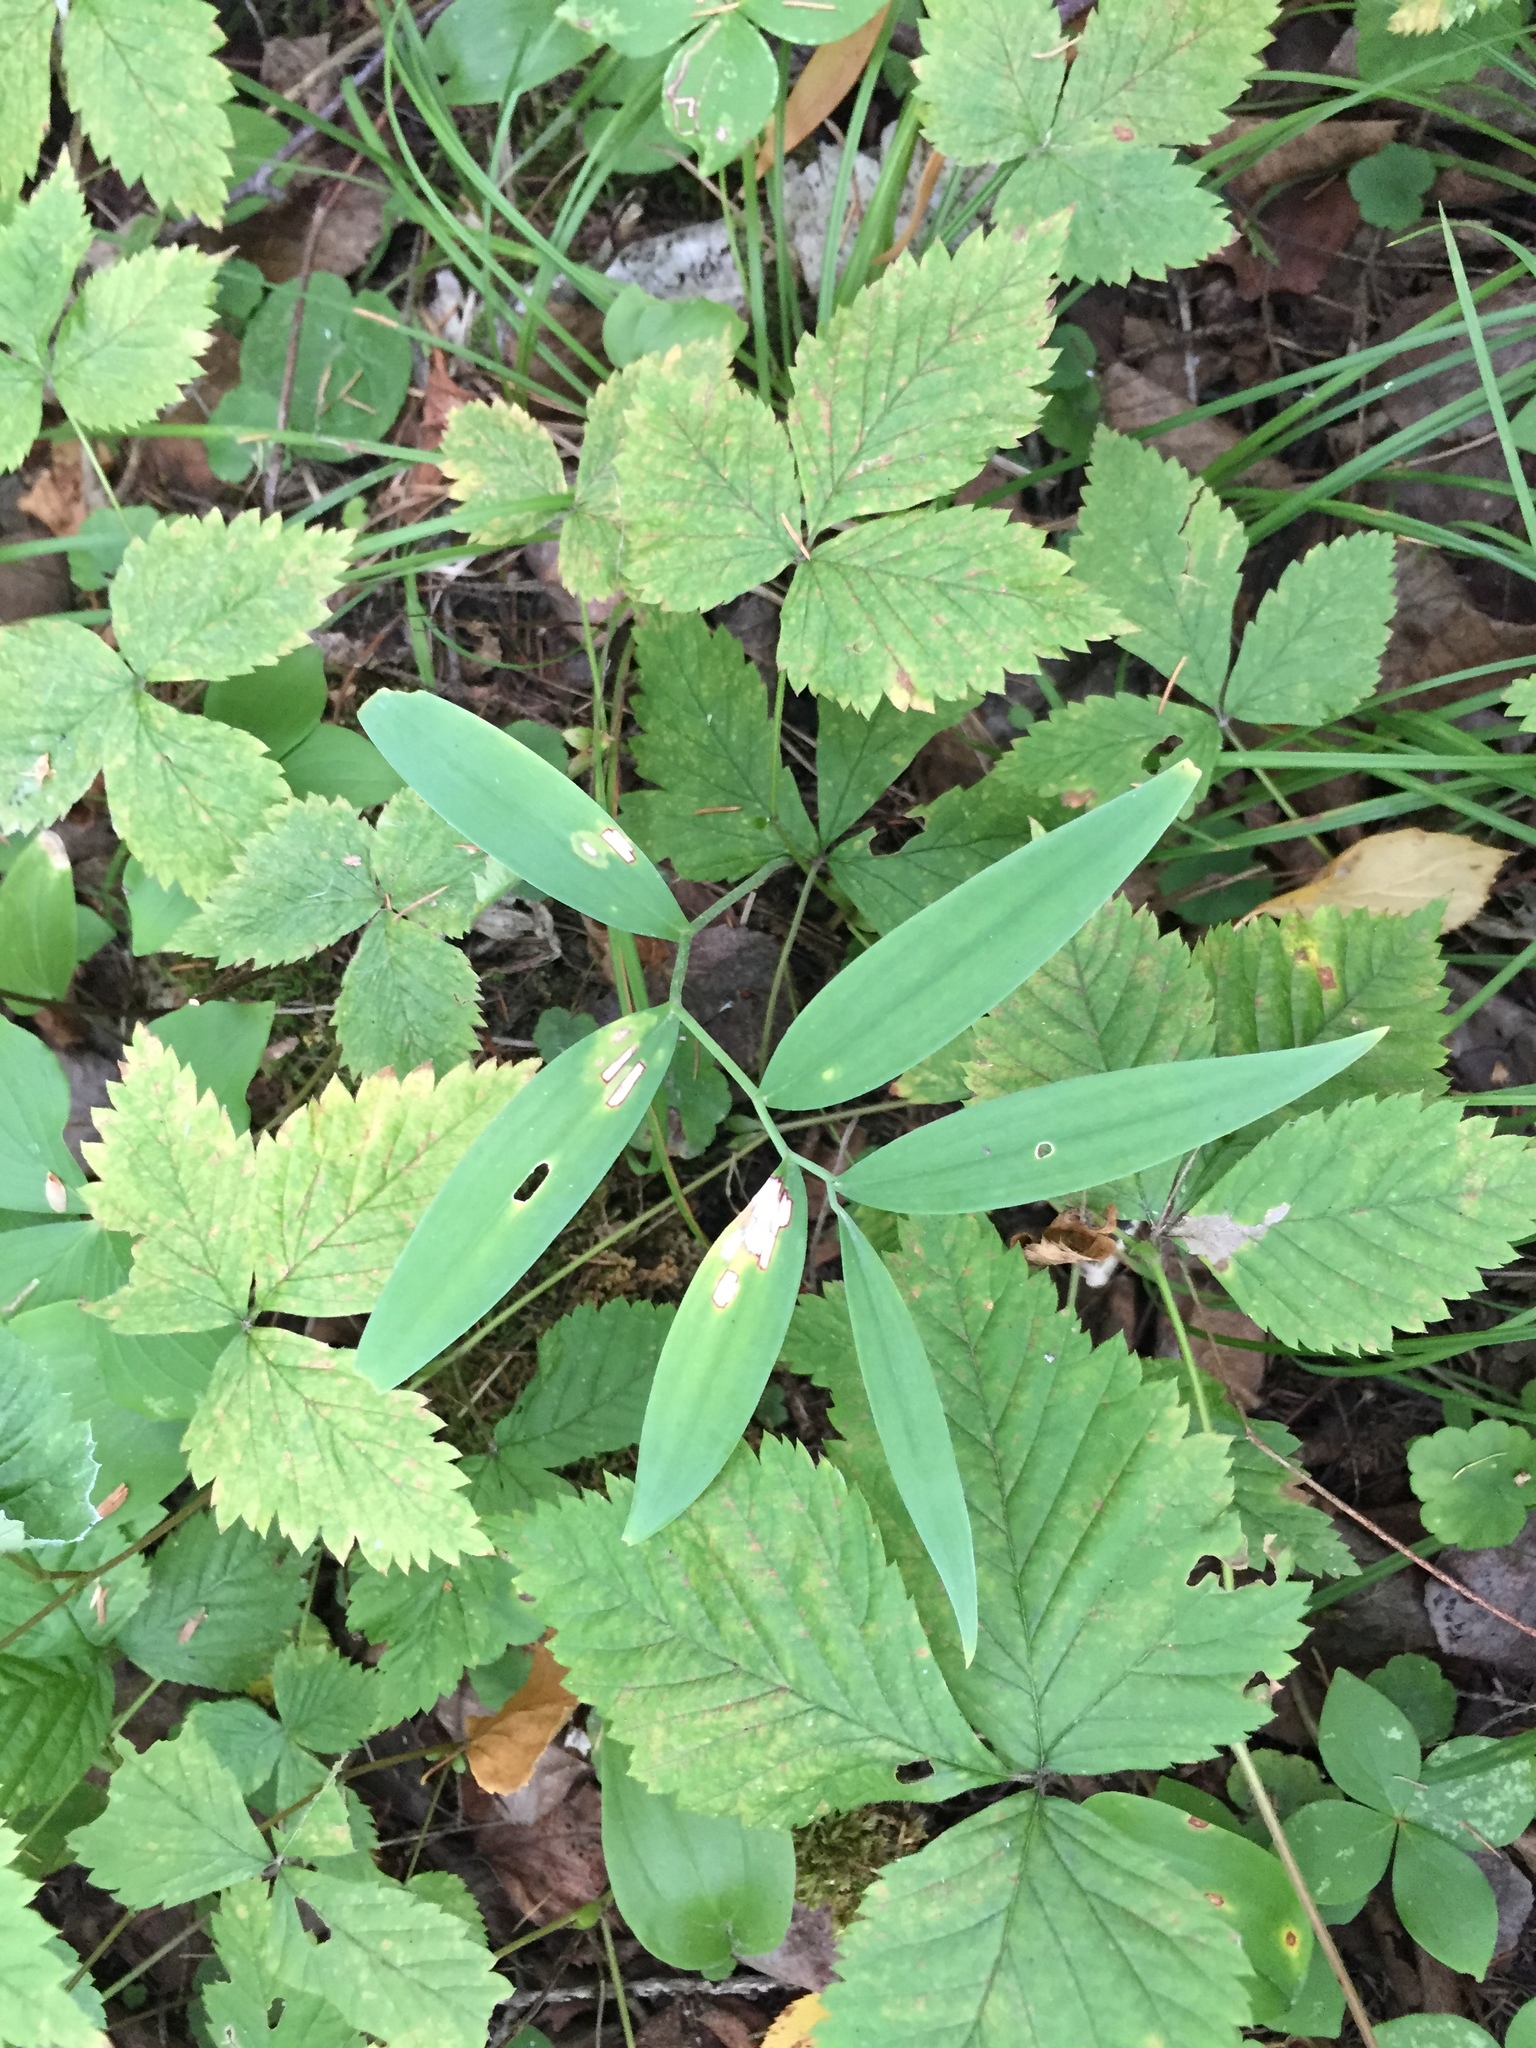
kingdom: Plantae
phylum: Tracheophyta
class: Liliopsida
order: Asparagales
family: Asparagaceae
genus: Maianthemum
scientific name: Maianthemum stellatum
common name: Little false solomon's seal
